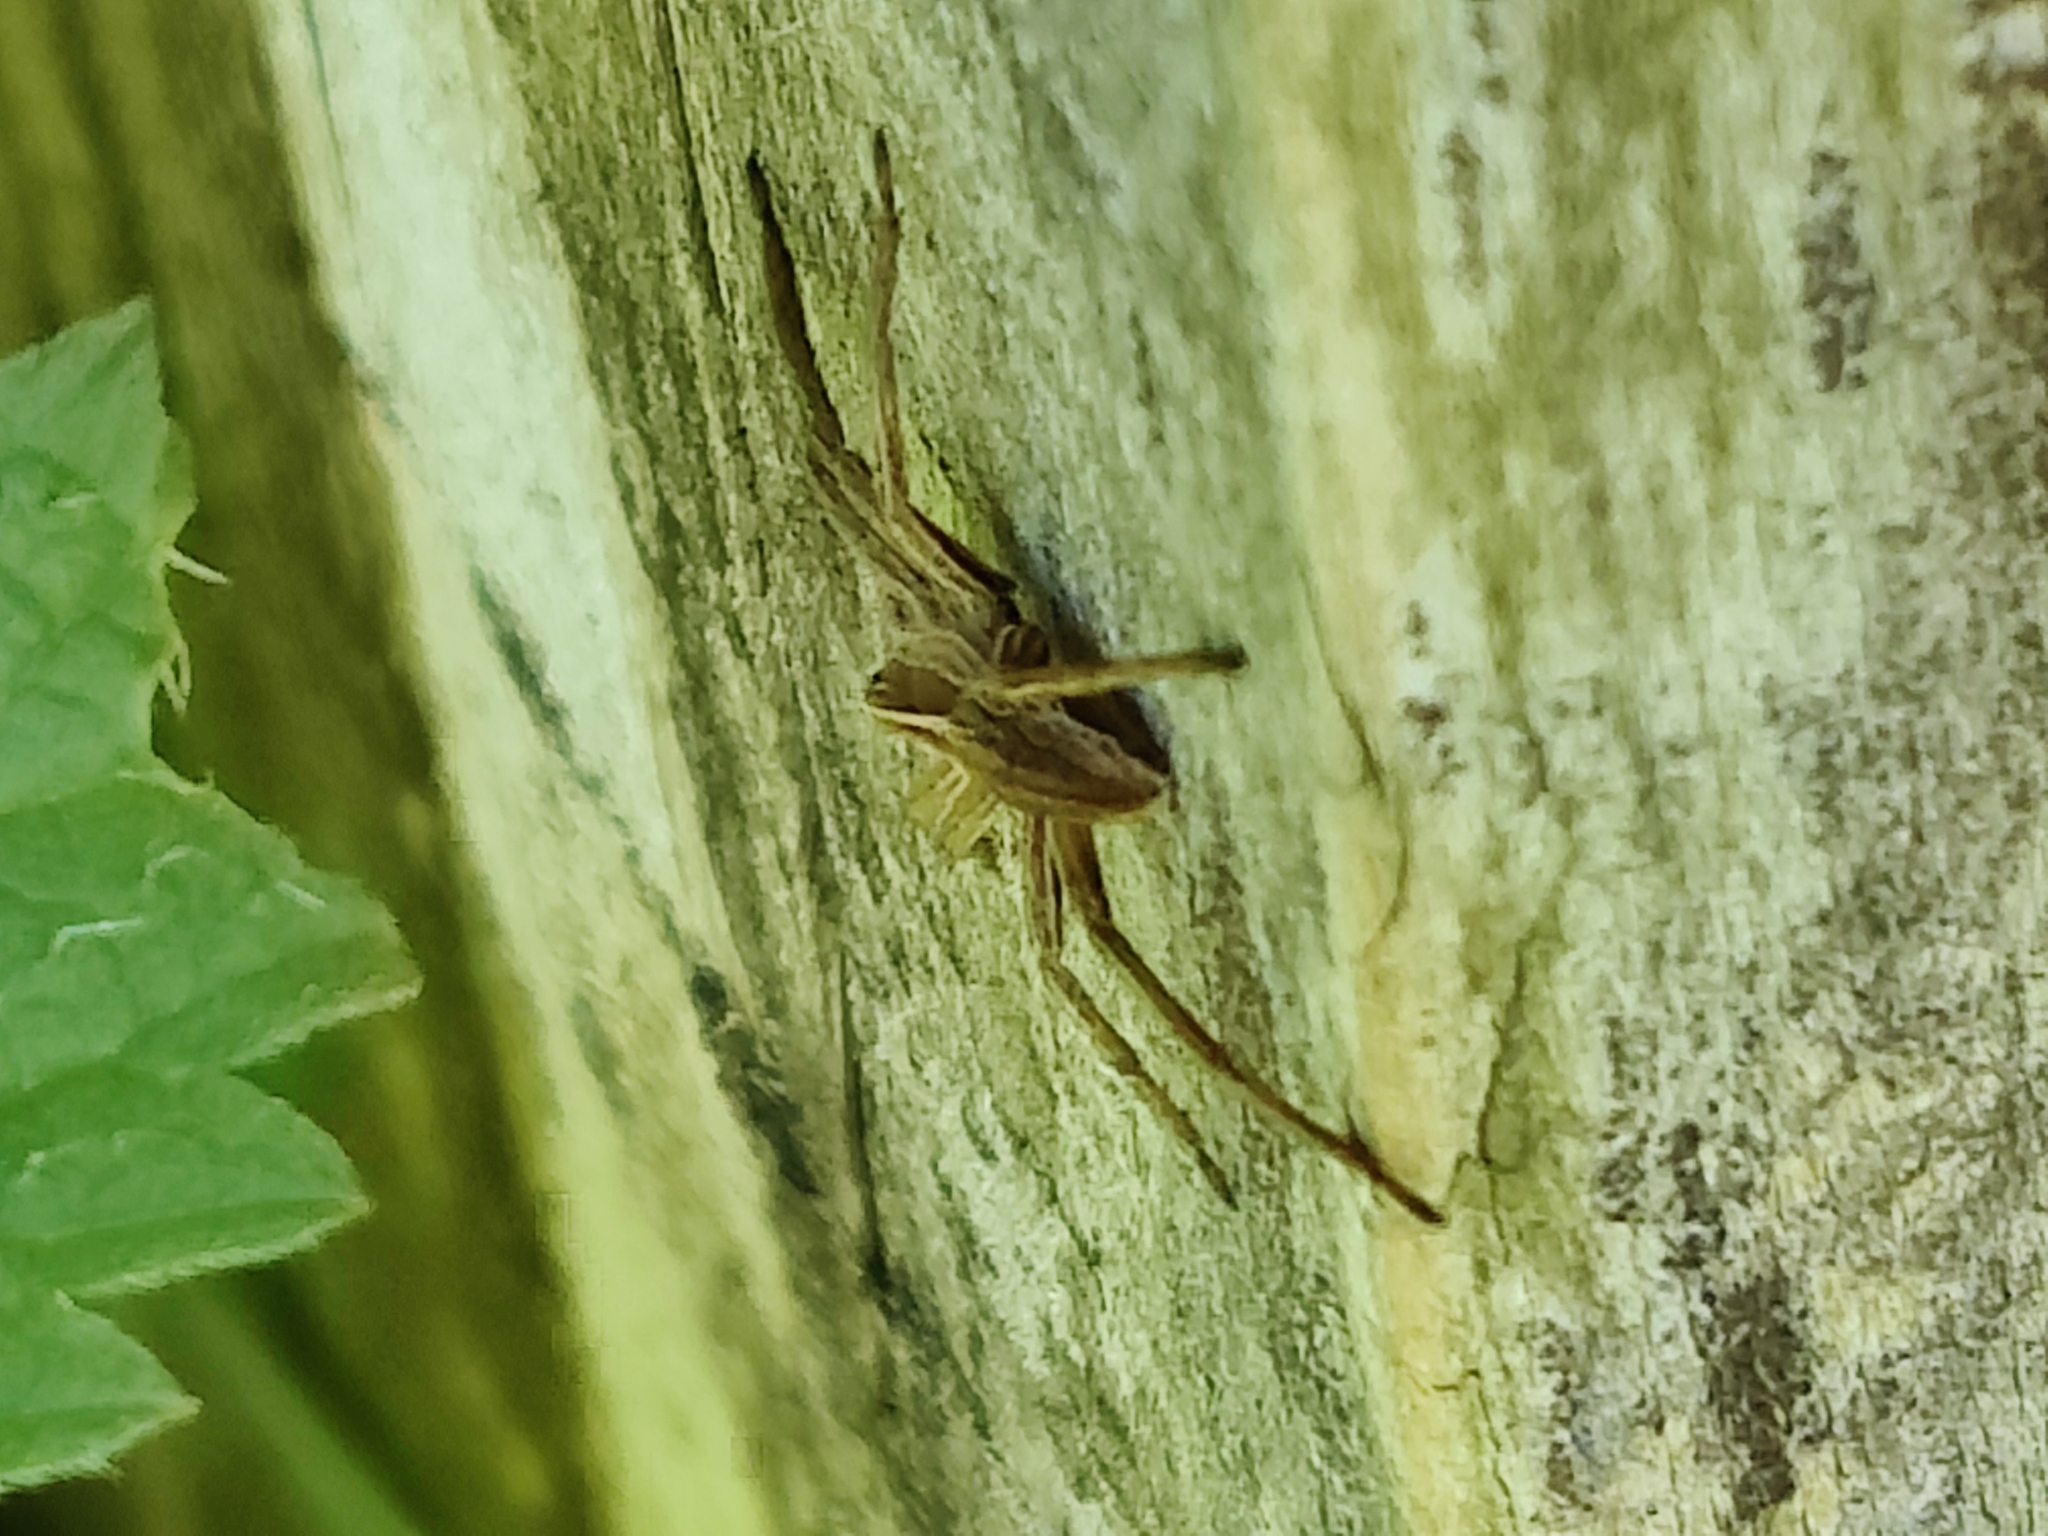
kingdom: Animalia
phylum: Arthropoda
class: Arachnida
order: Araneae
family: Pisauridae
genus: Pisaura
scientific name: Pisaura mirabilis
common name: Tent spider
